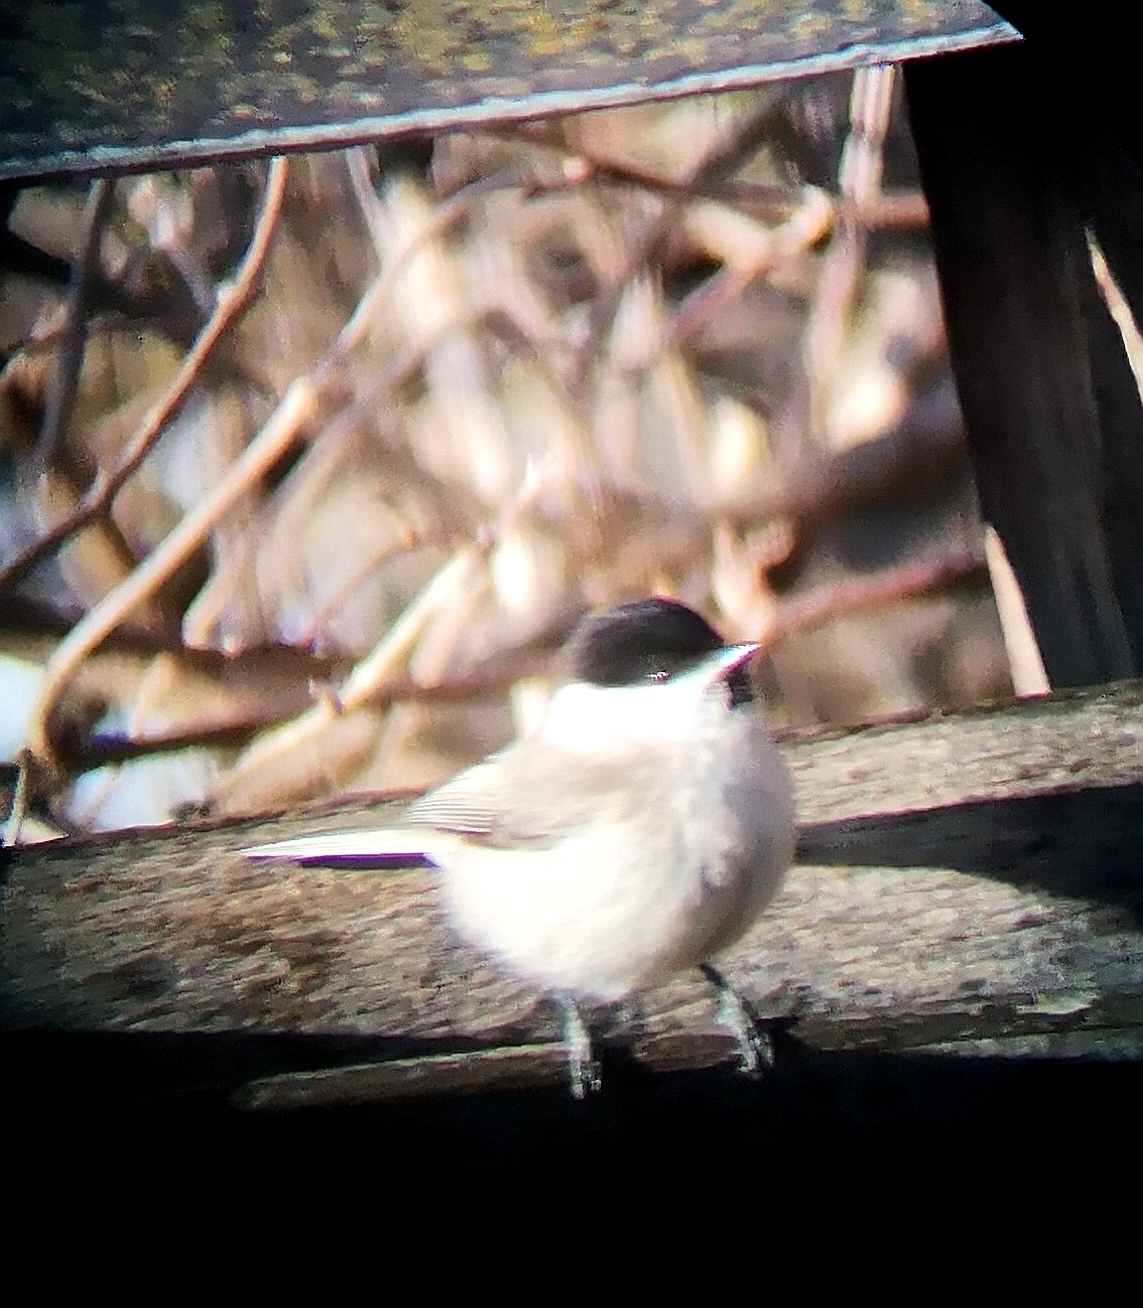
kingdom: Animalia
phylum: Chordata
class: Aves
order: Passeriformes
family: Paridae
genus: Poecile
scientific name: Poecile palustris
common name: Marsh tit
